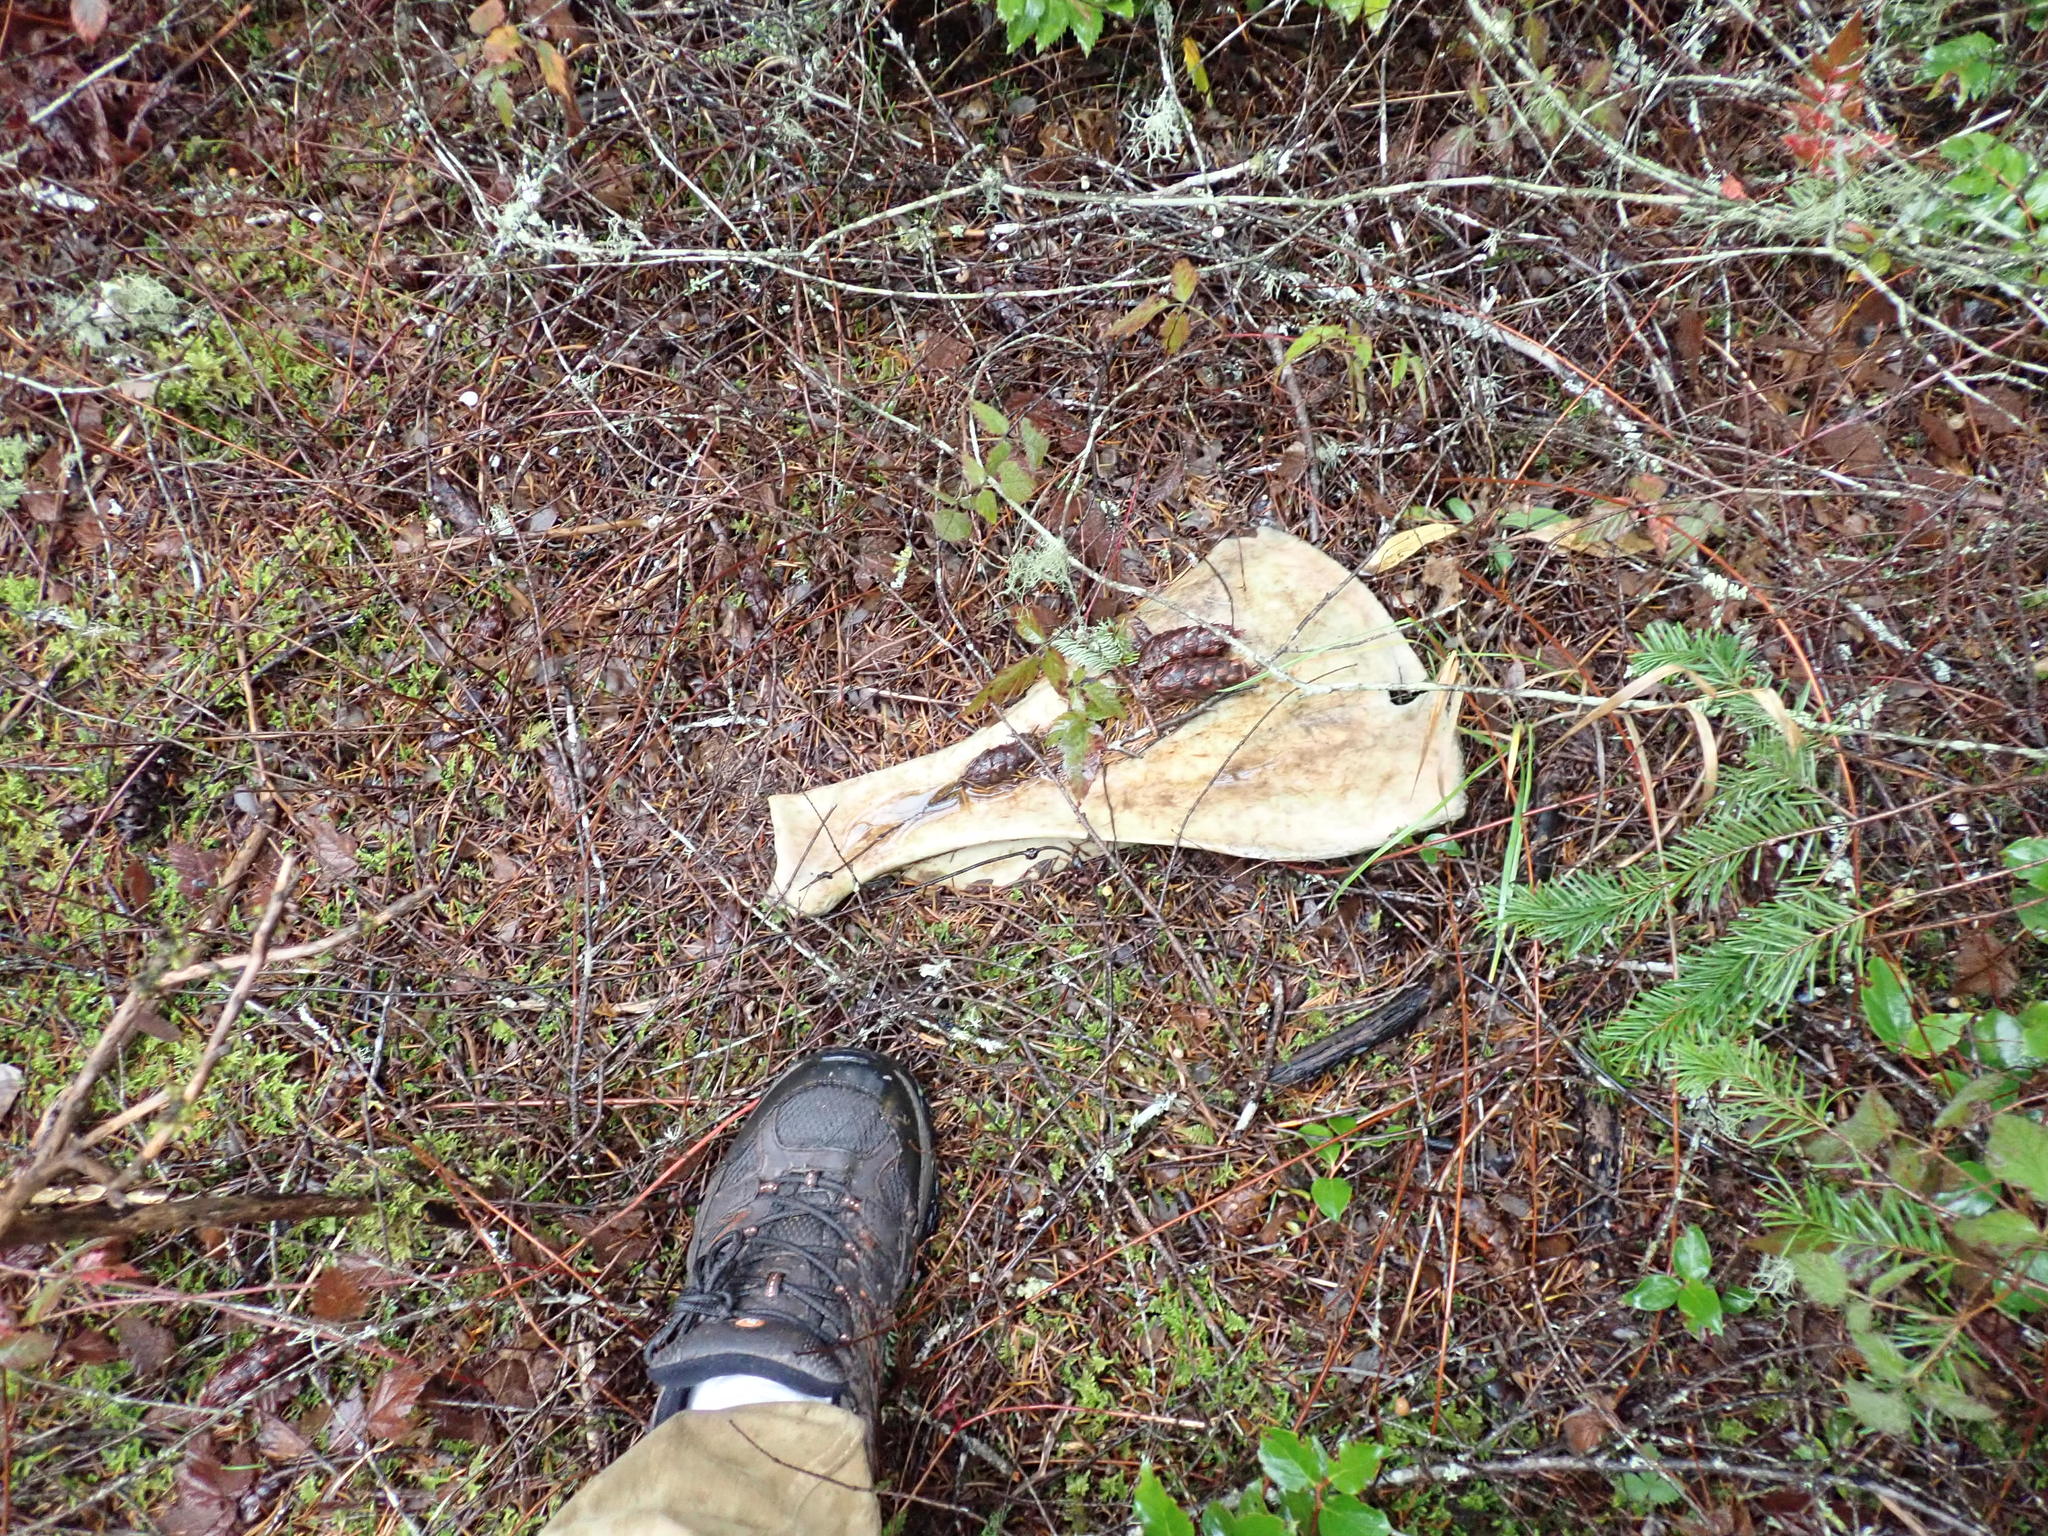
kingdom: Animalia
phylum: Chordata
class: Mammalia
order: Artiodactyla
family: Cervidae
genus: Cervus
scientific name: Cervus elaphus
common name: Red deer
